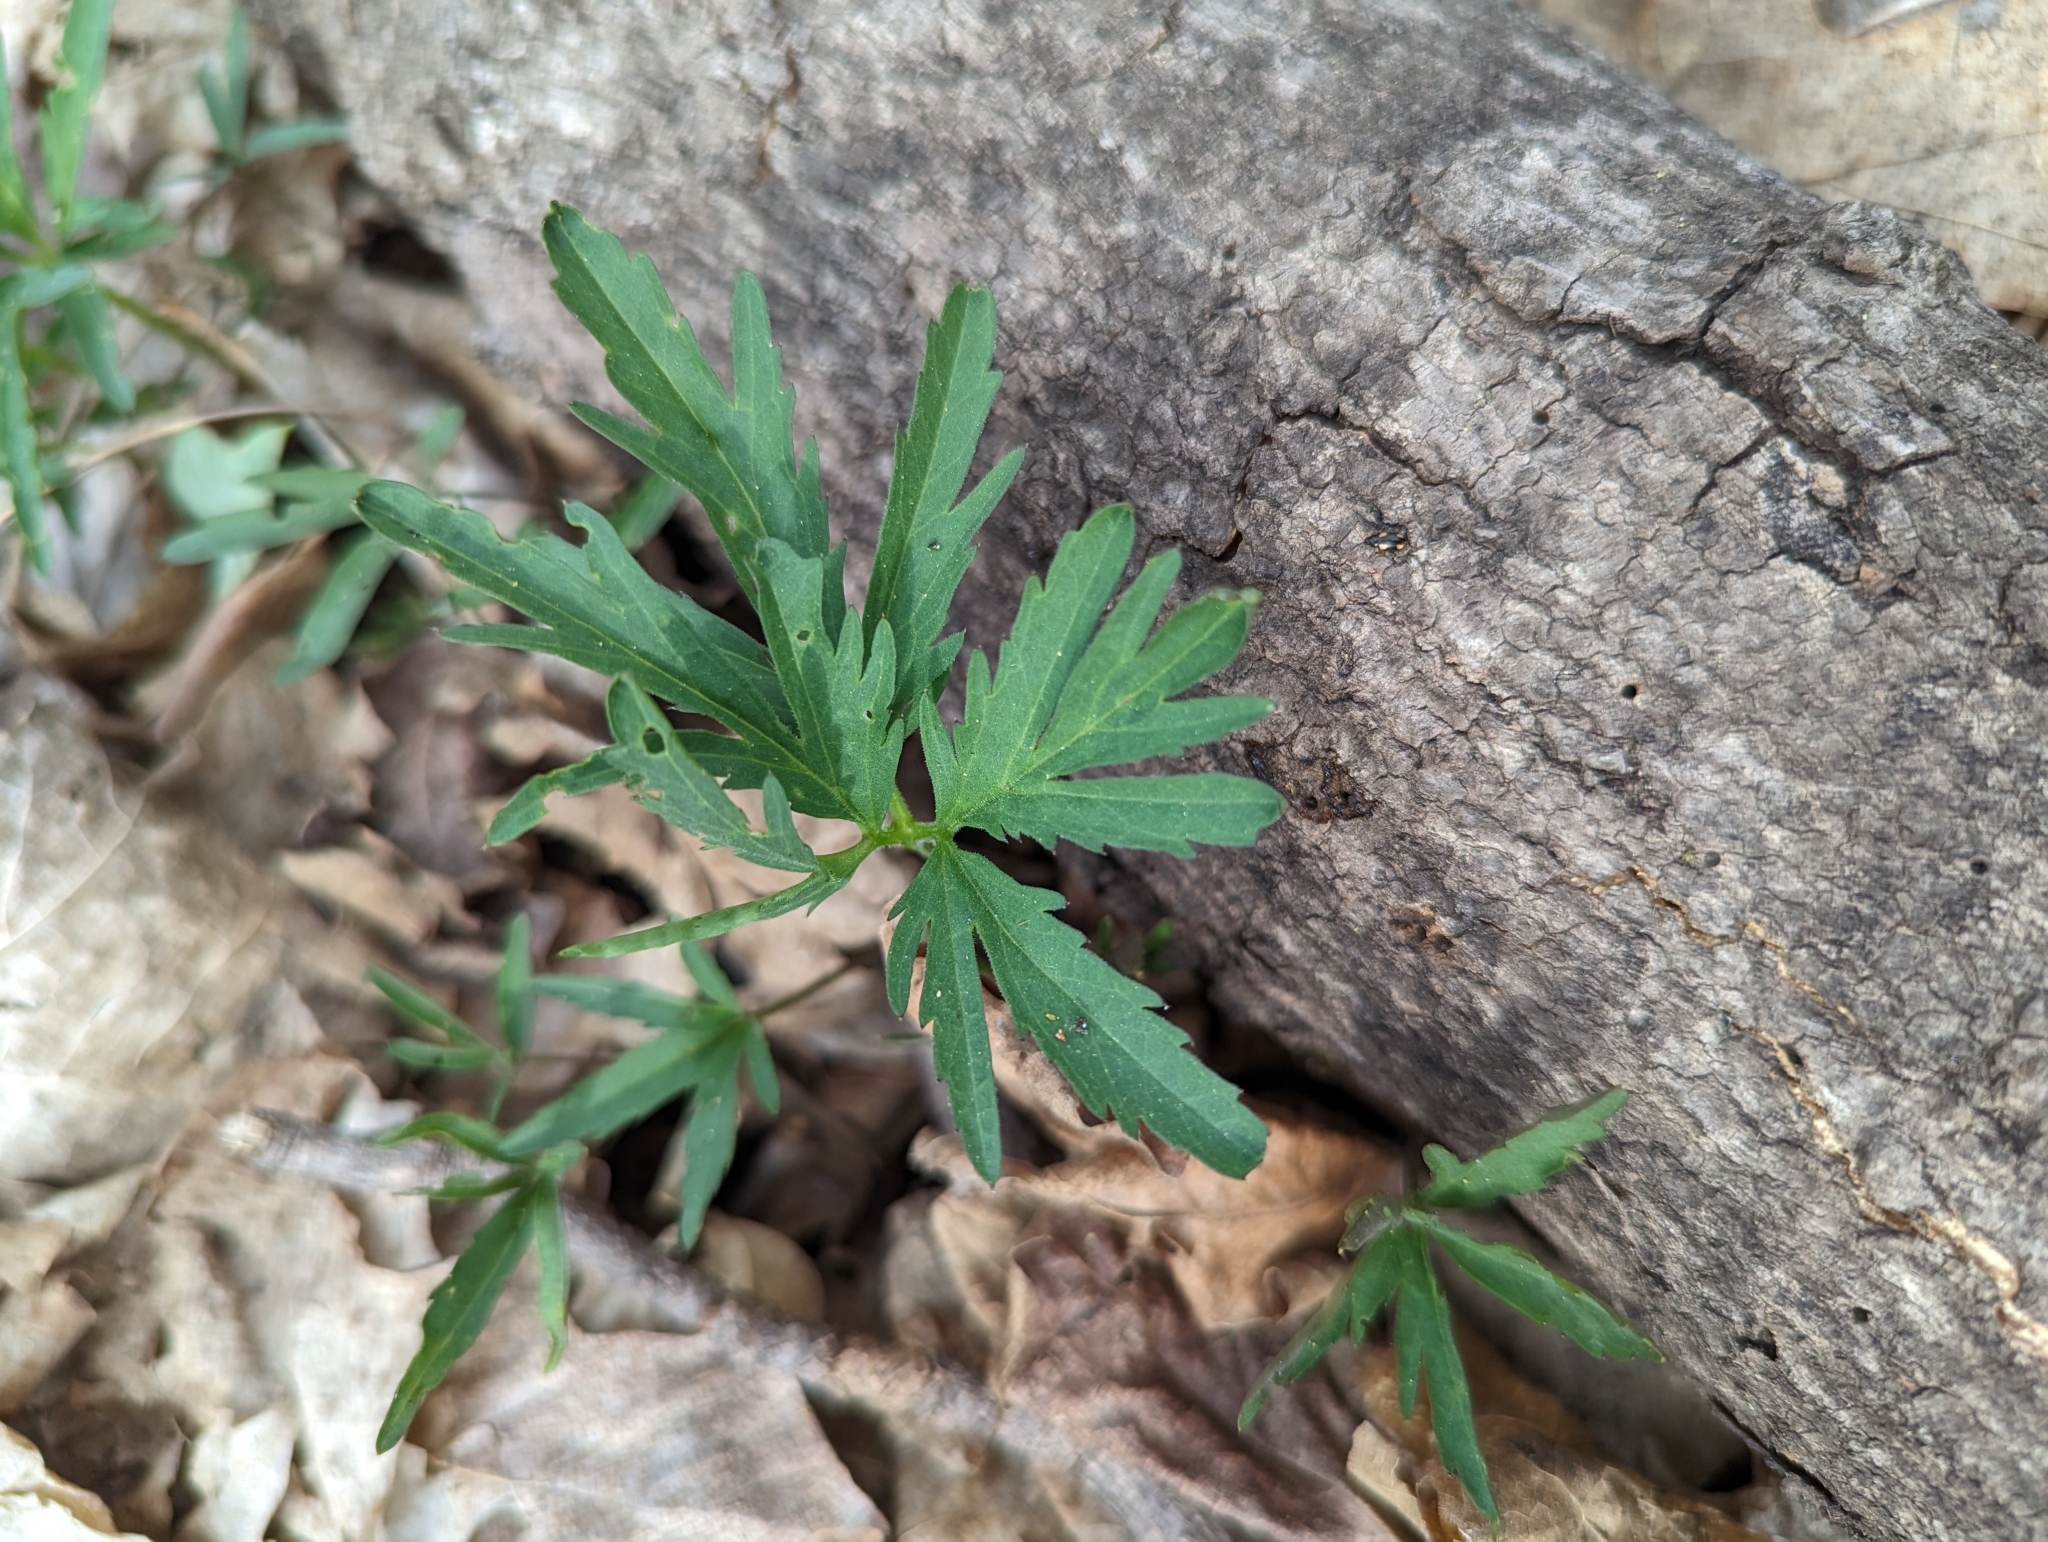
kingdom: Plantae
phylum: Tracheophyta
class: Magnoliopsida
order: Brassicales
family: Brassicaceae
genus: Cardamine
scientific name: Cardamine concatenata
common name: Cut-leaf toothcup
